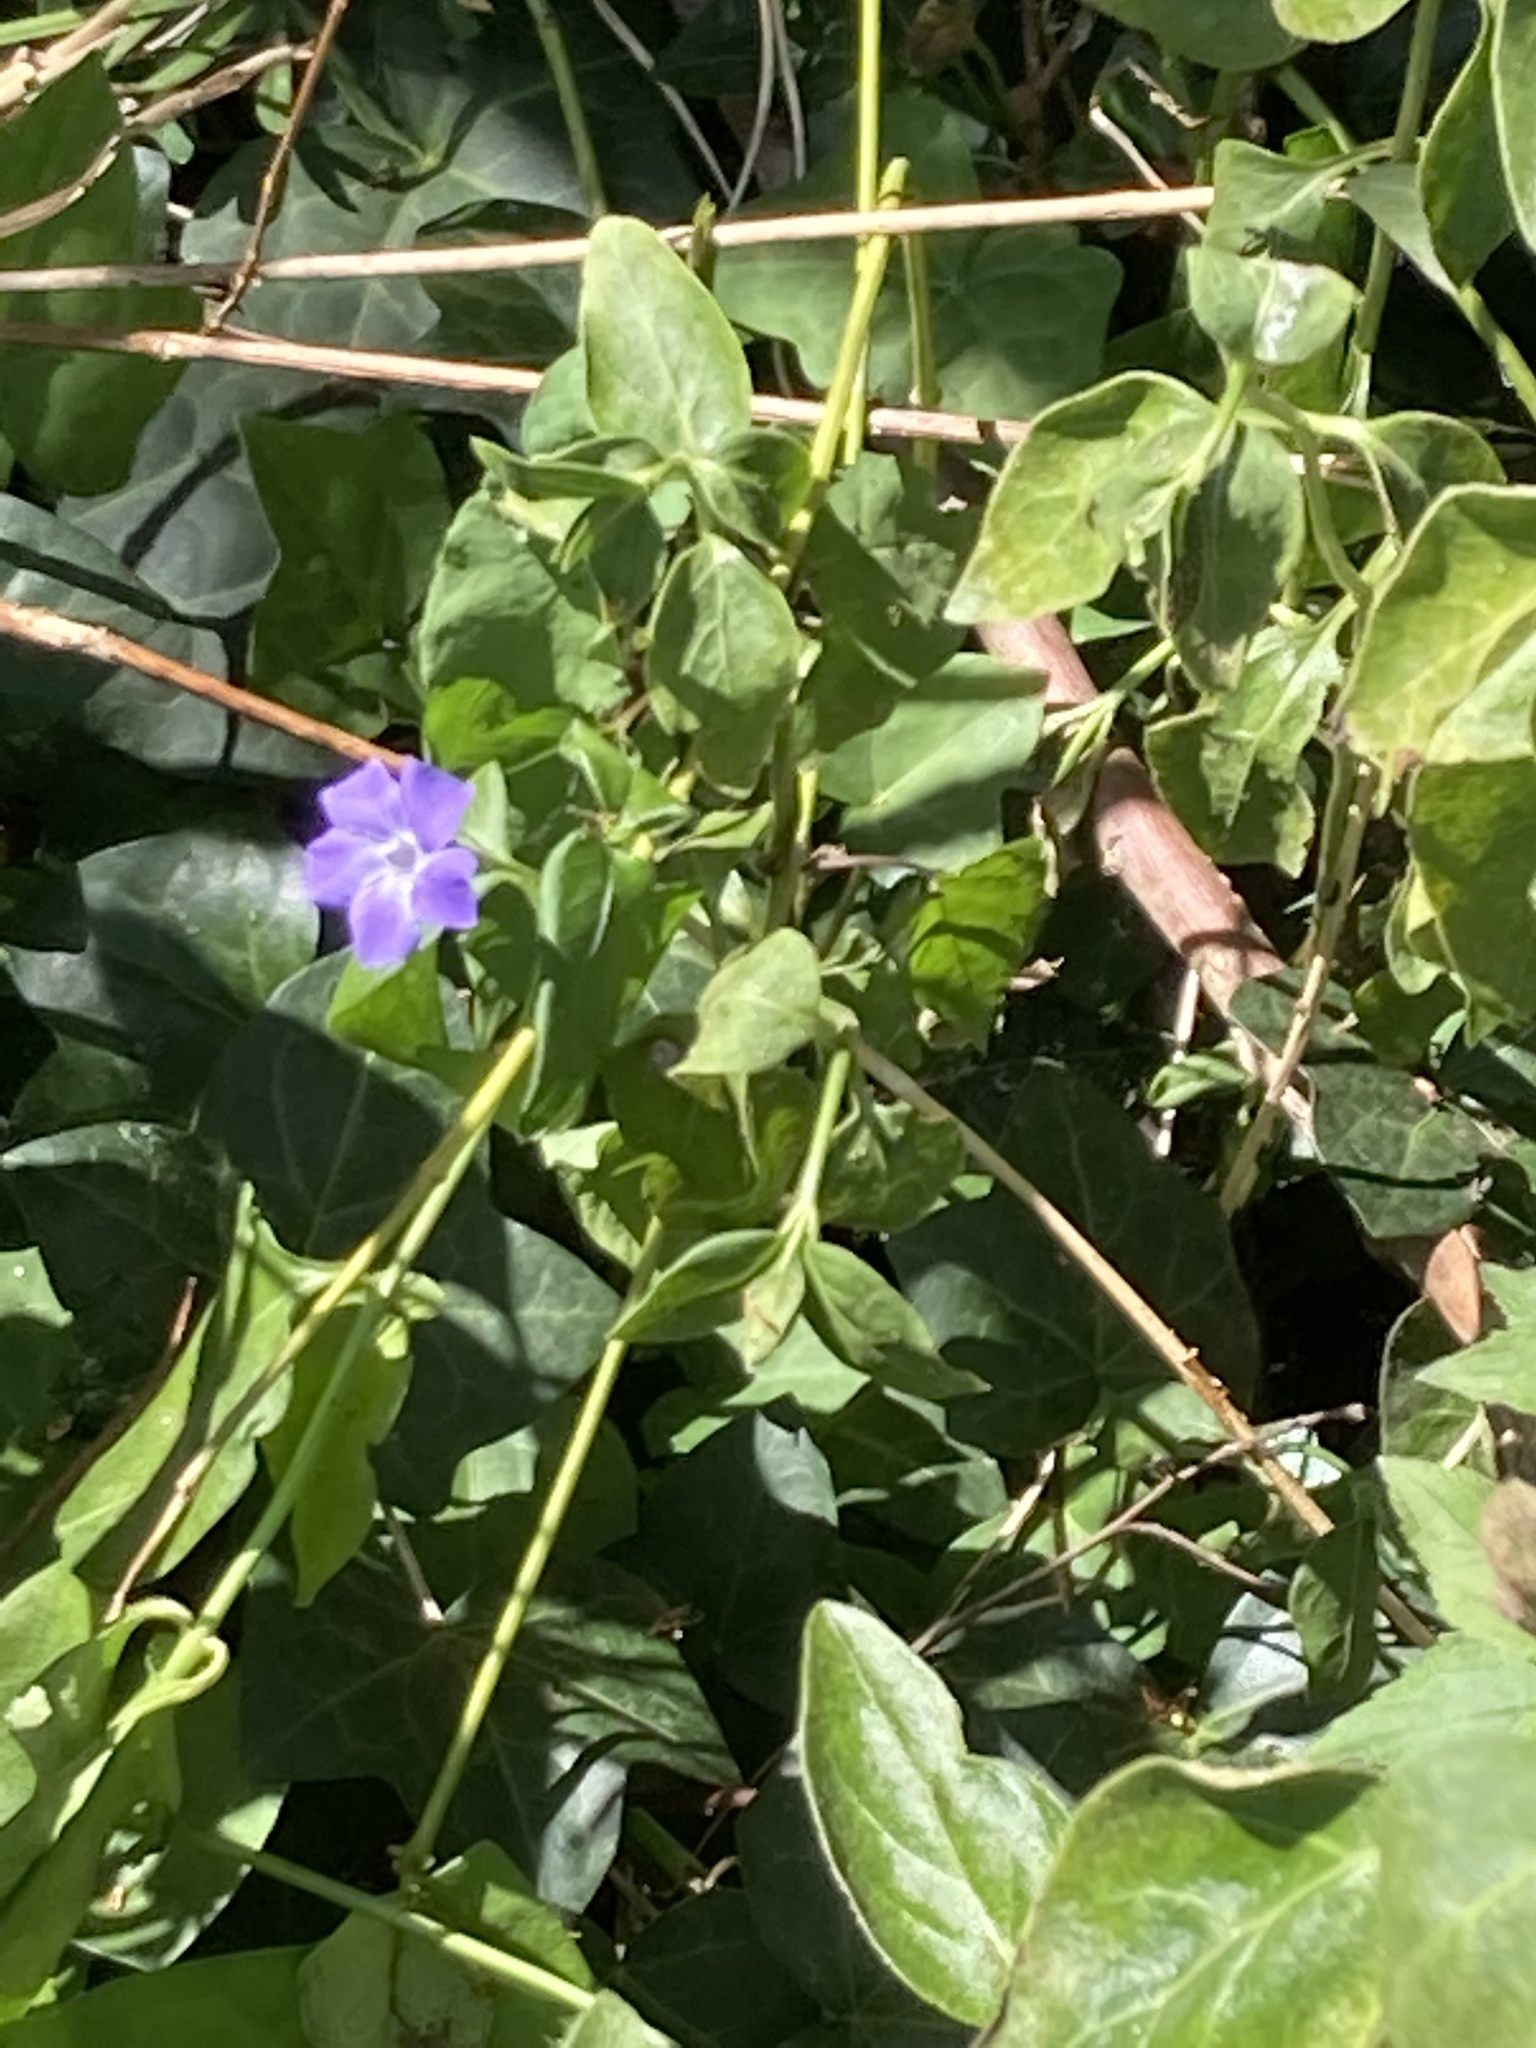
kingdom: Plantae
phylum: Tracheophyta
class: Magnoliopsida
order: Gentianales
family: Apocynaceae
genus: Vinca
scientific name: Vinca major
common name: Greater periwinkle
